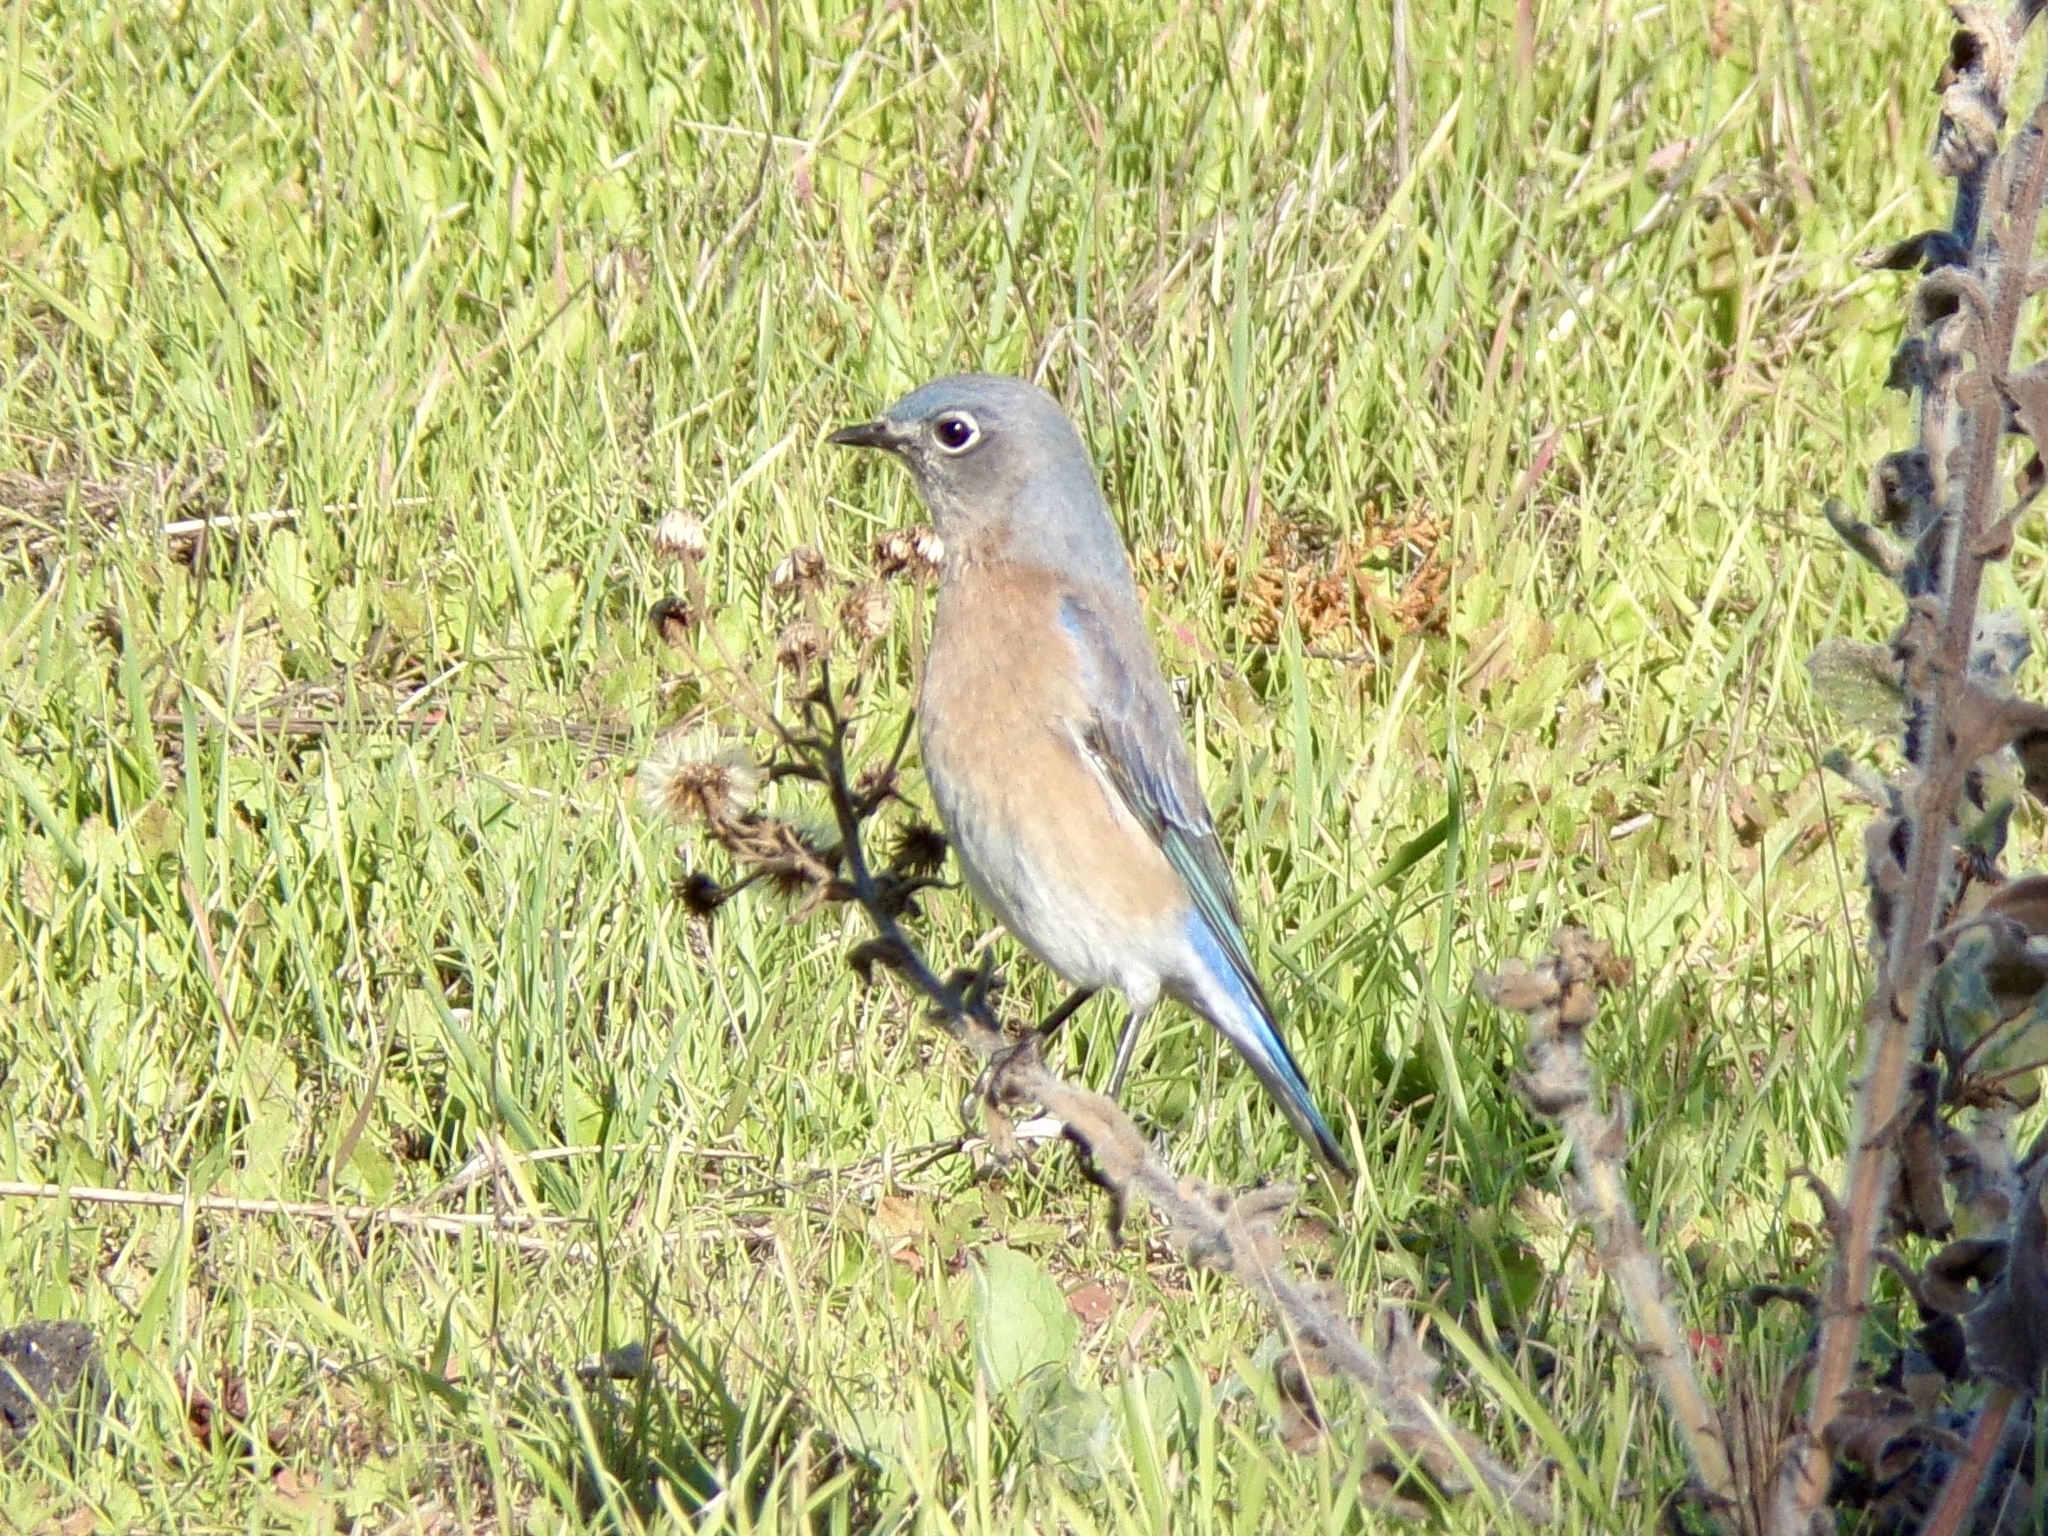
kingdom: Animalia
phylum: Chordata
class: Aves
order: Passeriformes
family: Turdidae
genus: Sialia
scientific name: Sialia mexicana
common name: Western bluebird
